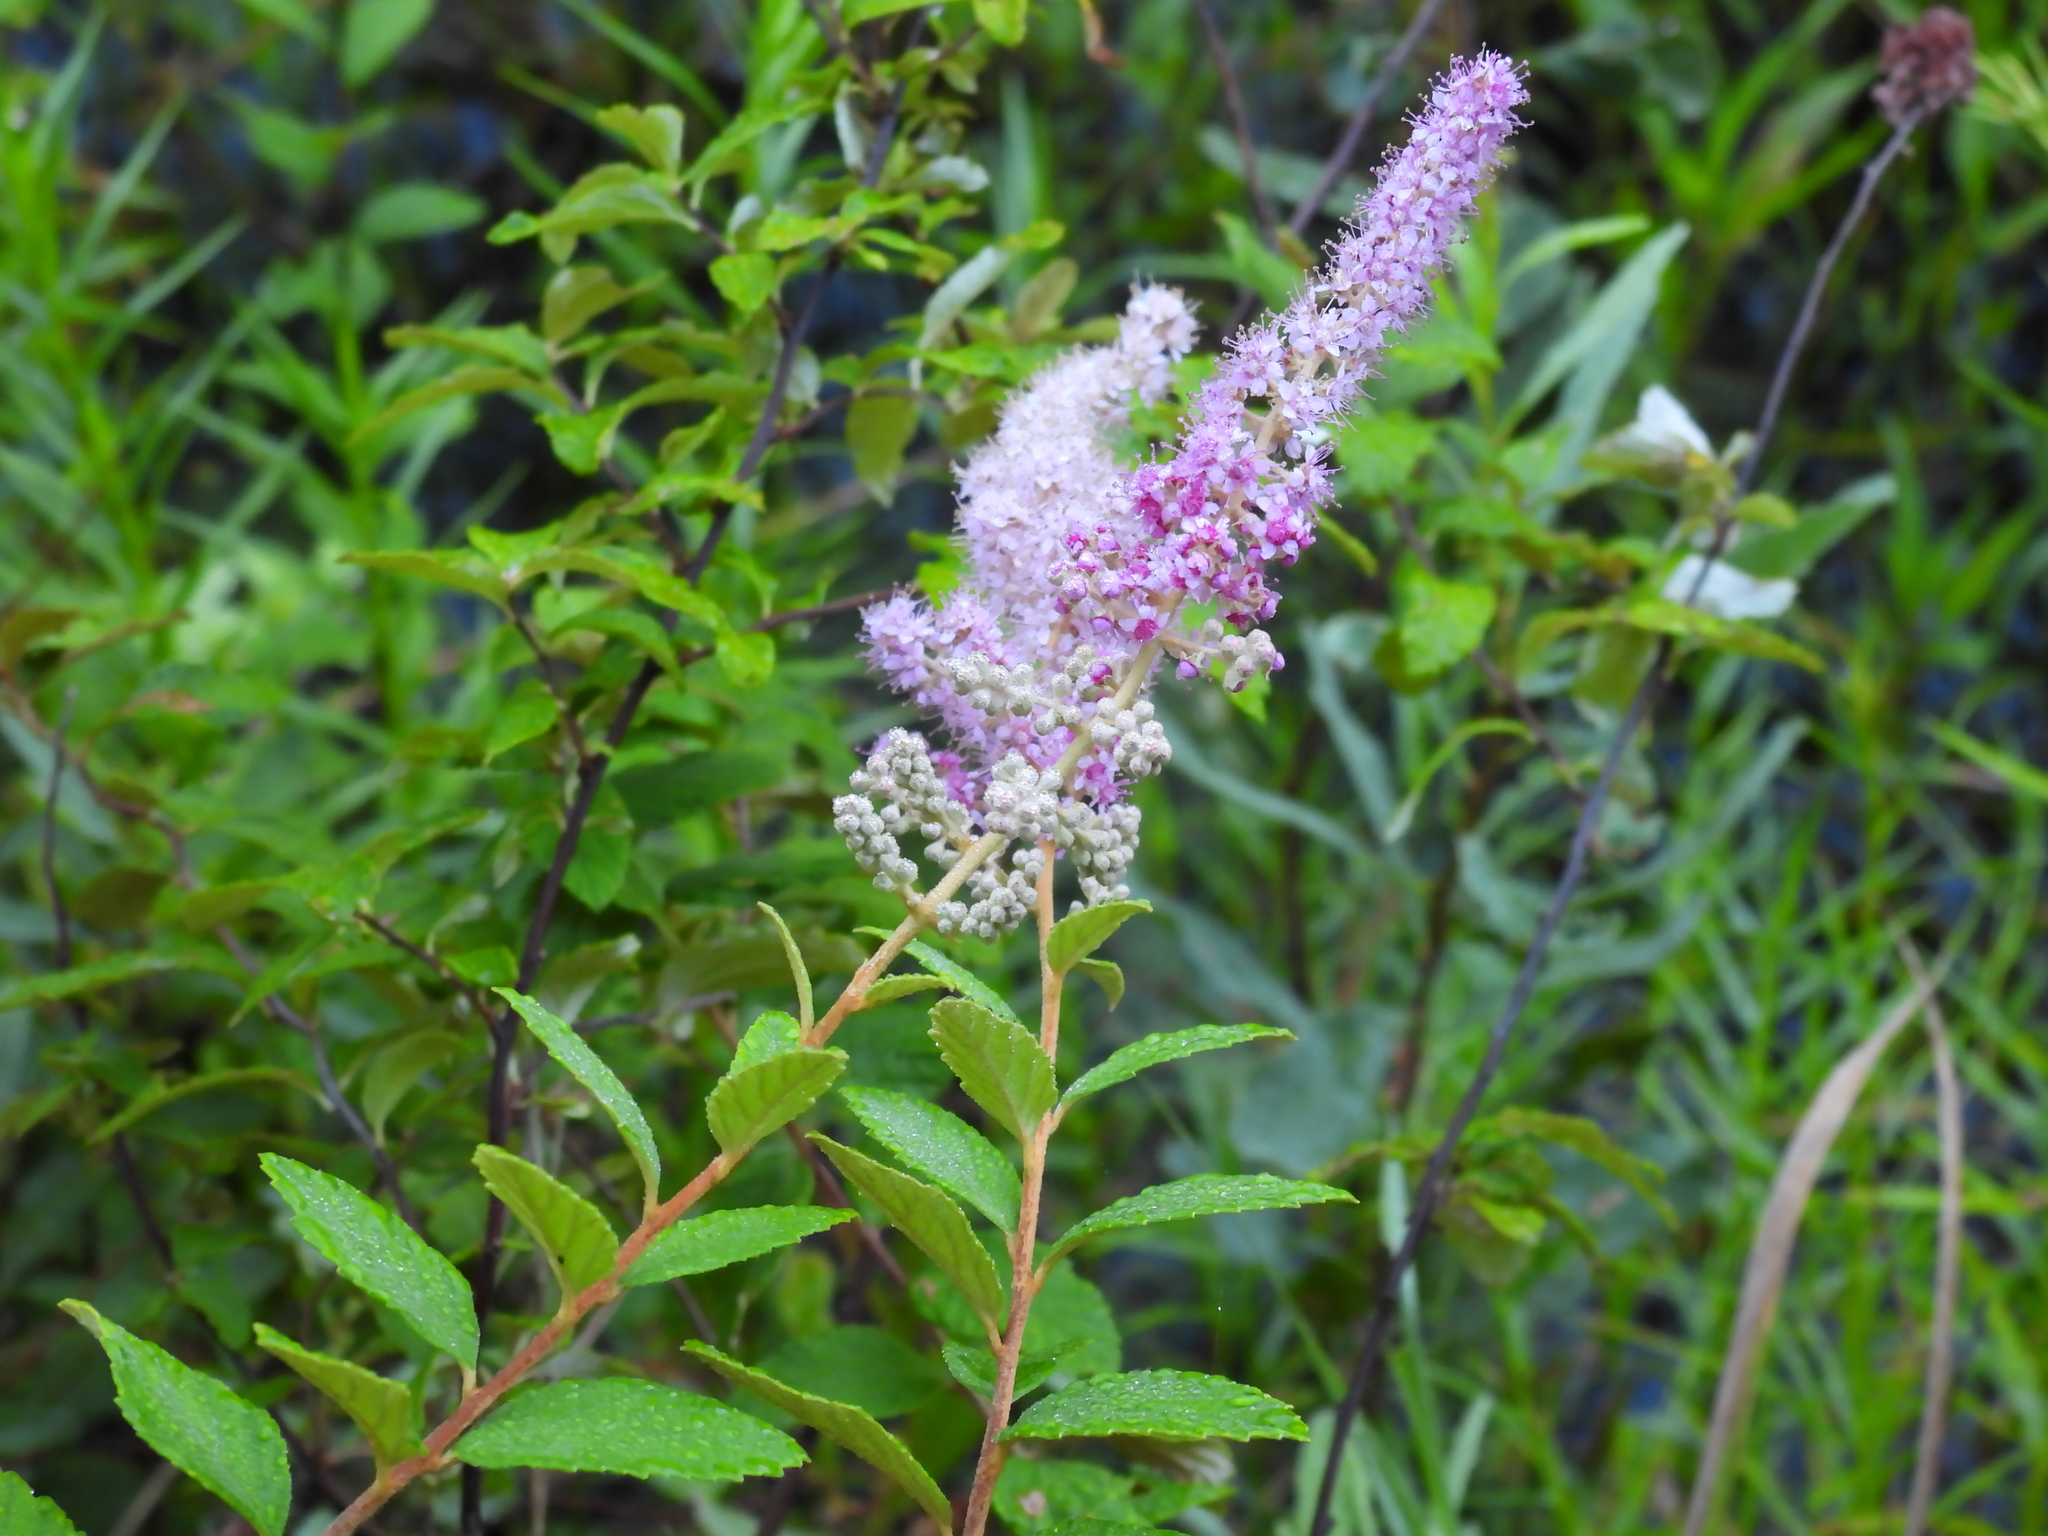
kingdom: Plantae
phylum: Tracheophyta
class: Magnoliopsida
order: Rosales
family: Rosaceae
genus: Spiraea
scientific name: Spiraea tomentosa
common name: Hardhack
